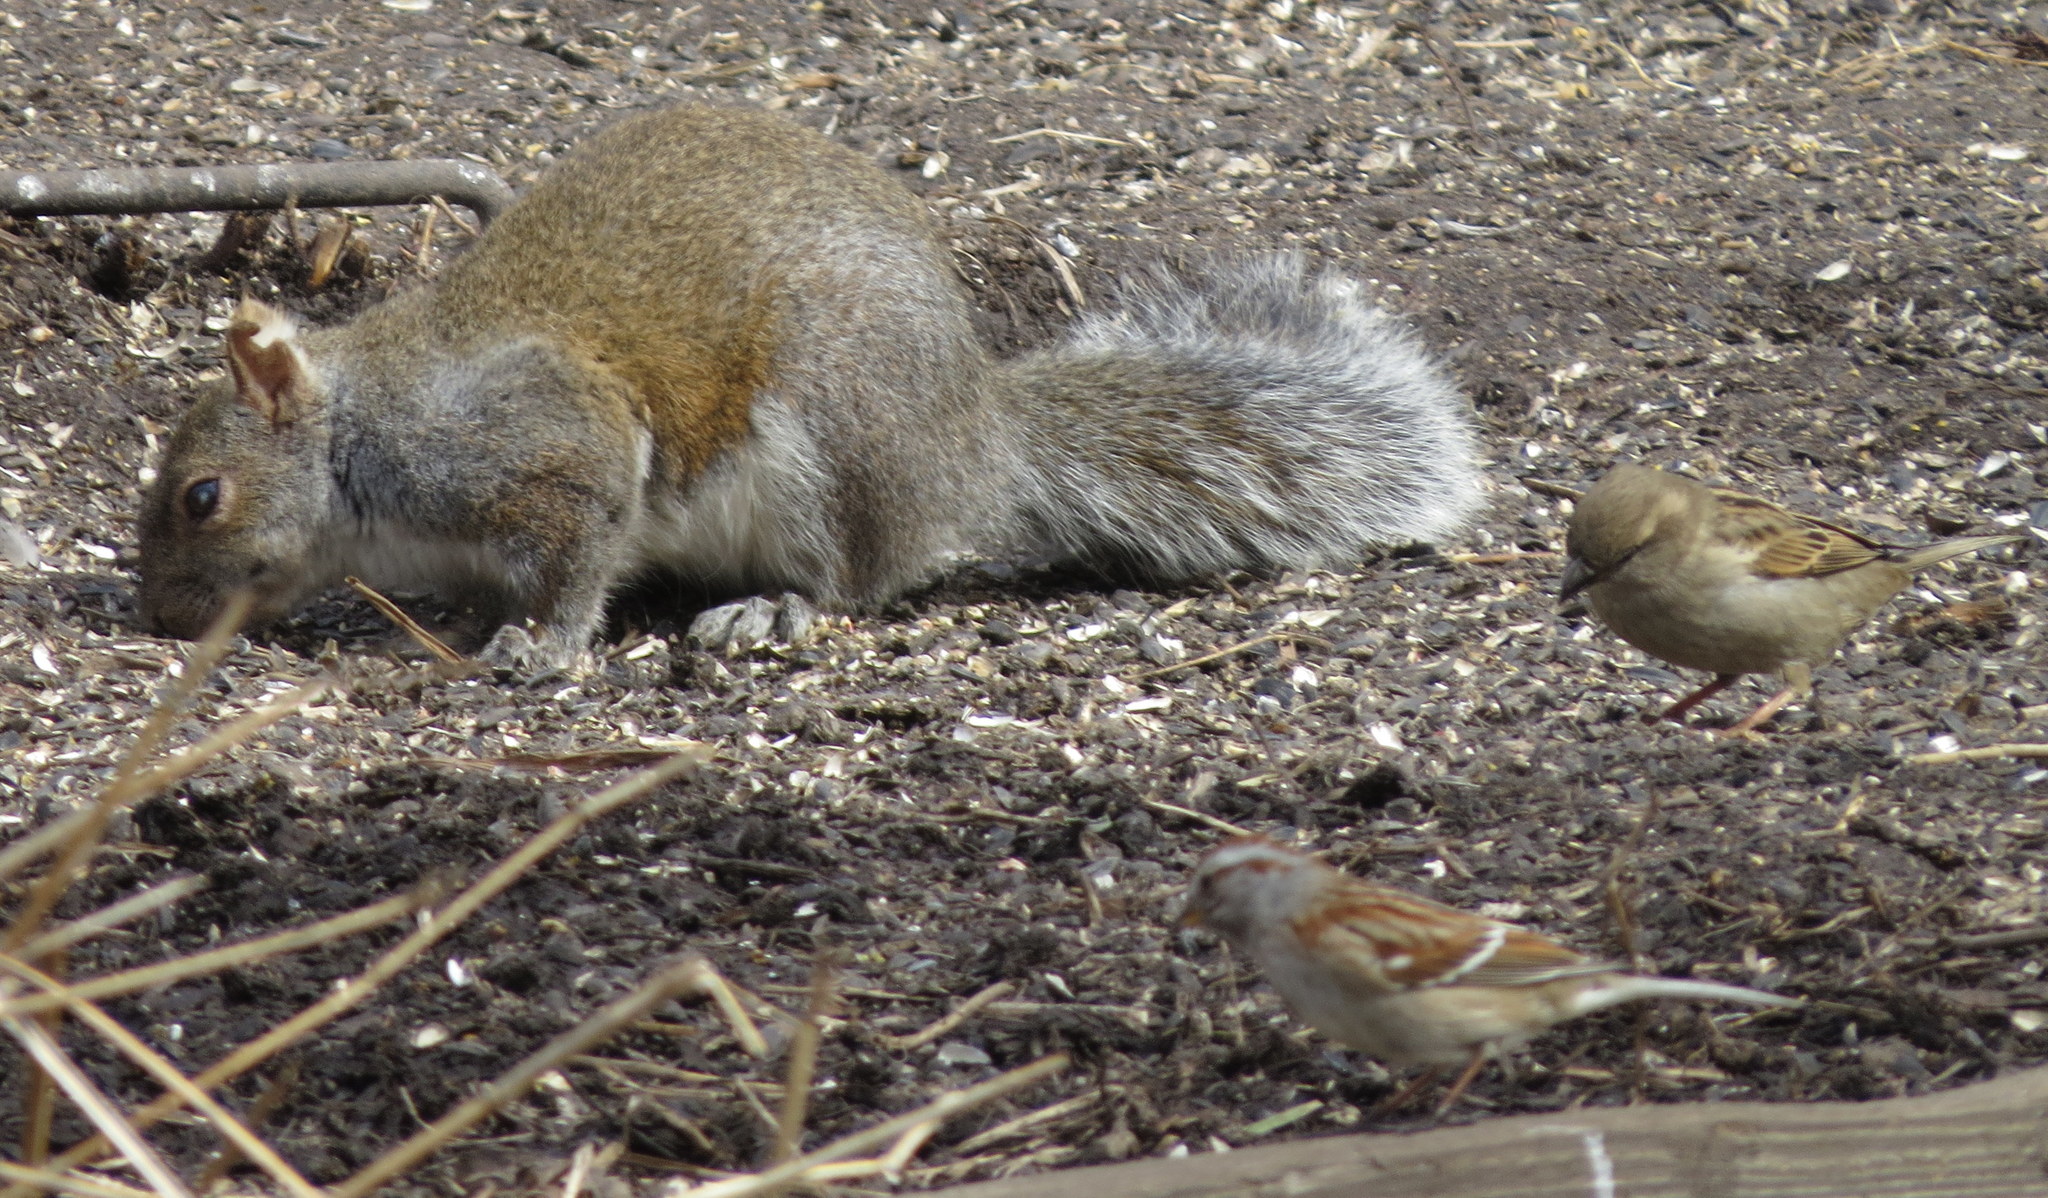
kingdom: Animalia
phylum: Chordata
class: Mammalia
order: Rodentia
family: Sciuridae
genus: Sciurus
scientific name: Sciurus carolinensis
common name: Eastern gray squirrel
